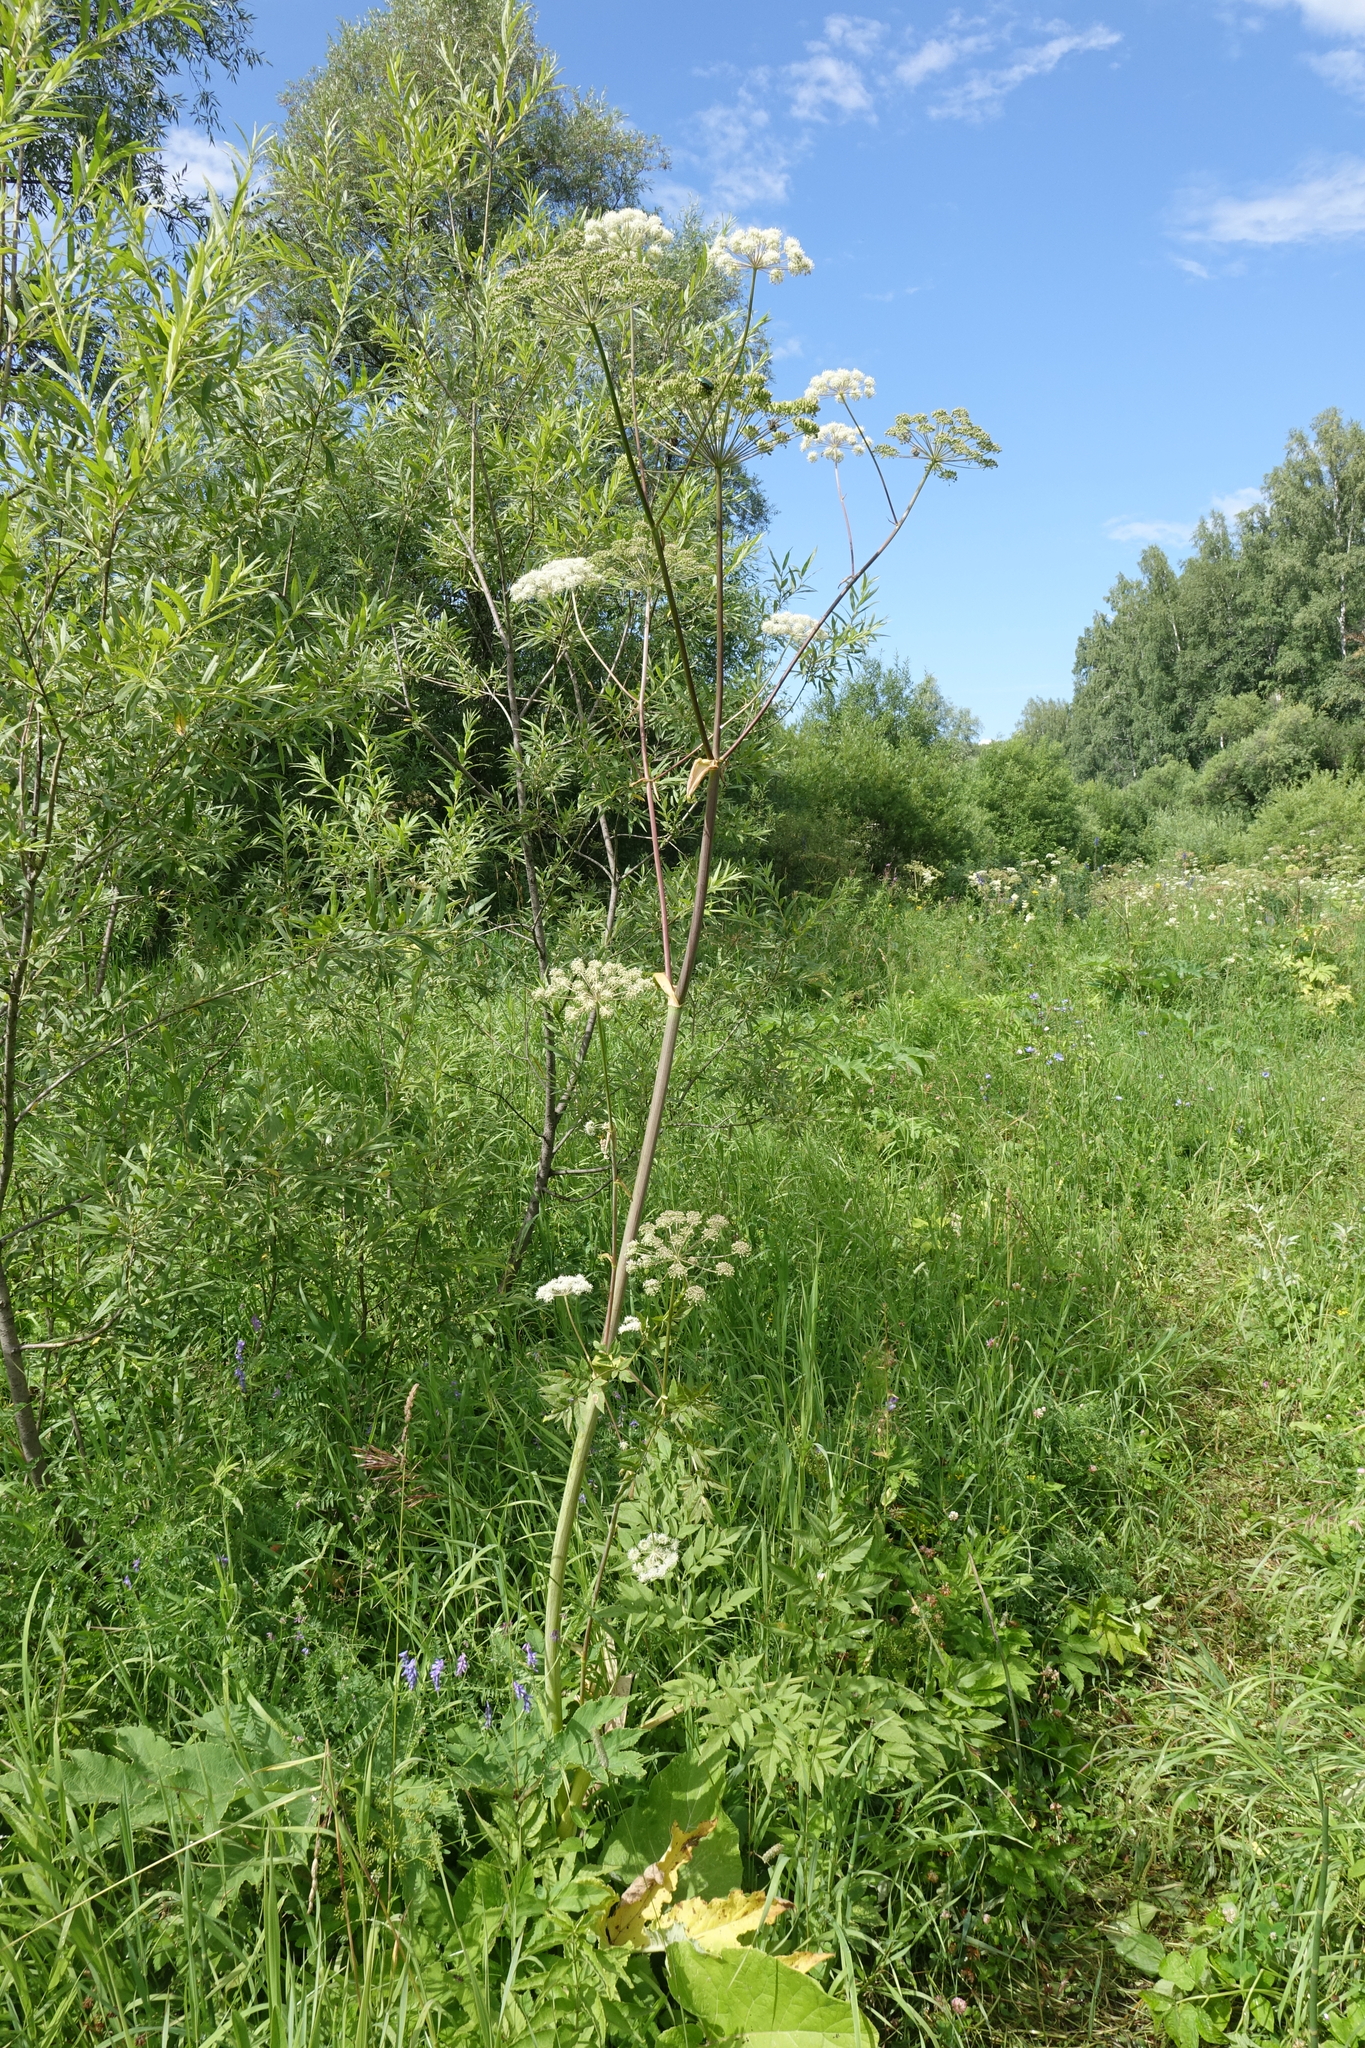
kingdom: Plantae
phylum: Tracheophyta
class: Magnoliopsida
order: Apiales
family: Apiaceae
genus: Angelica
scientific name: Angelica sylvestris
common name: Wild angelica
